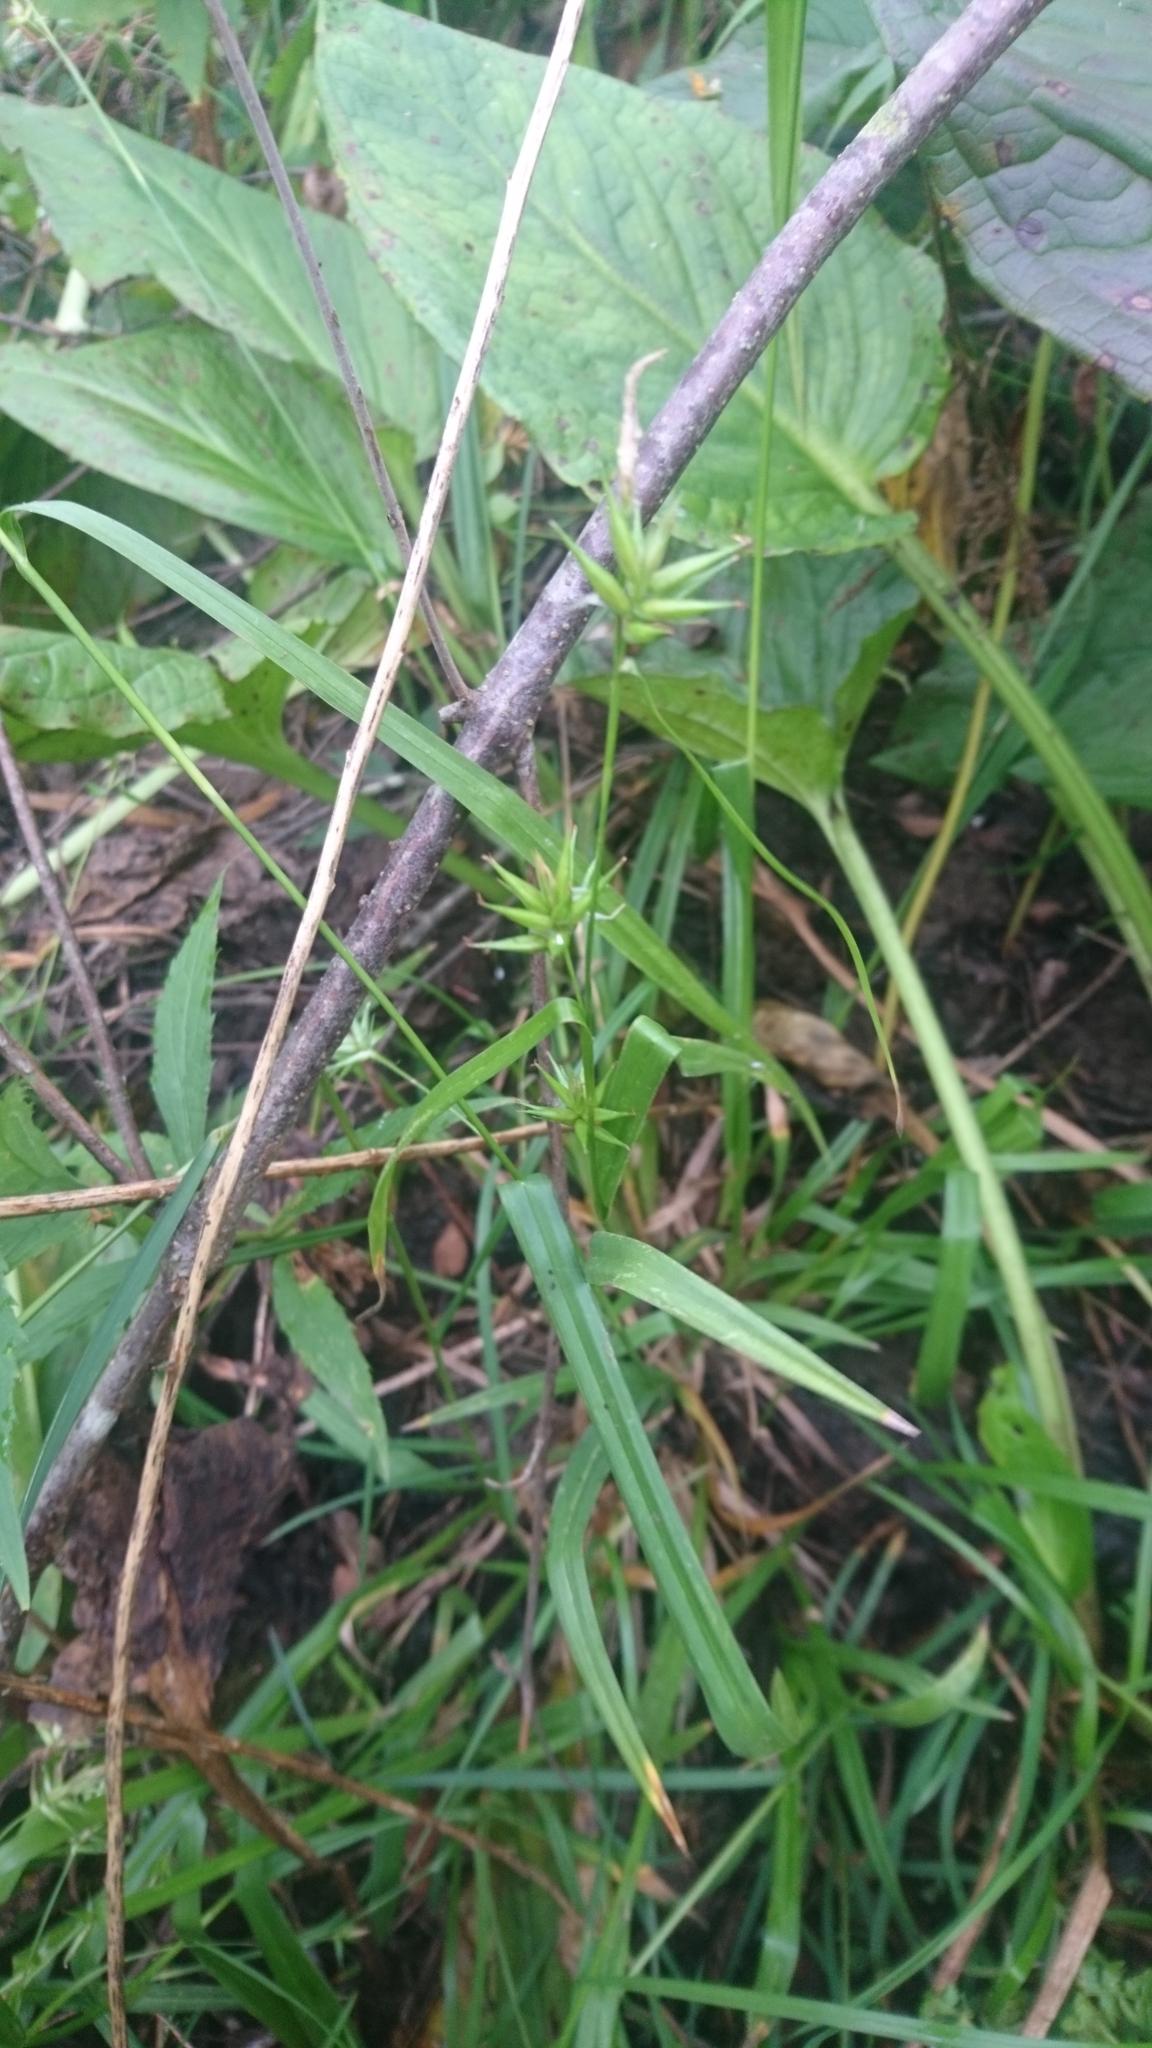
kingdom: Plantae
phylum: Tracheophyta
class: Liliopsida
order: Poales
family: Cyperaceae
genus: Carex
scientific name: Carex folliculata
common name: Northern long sedge
